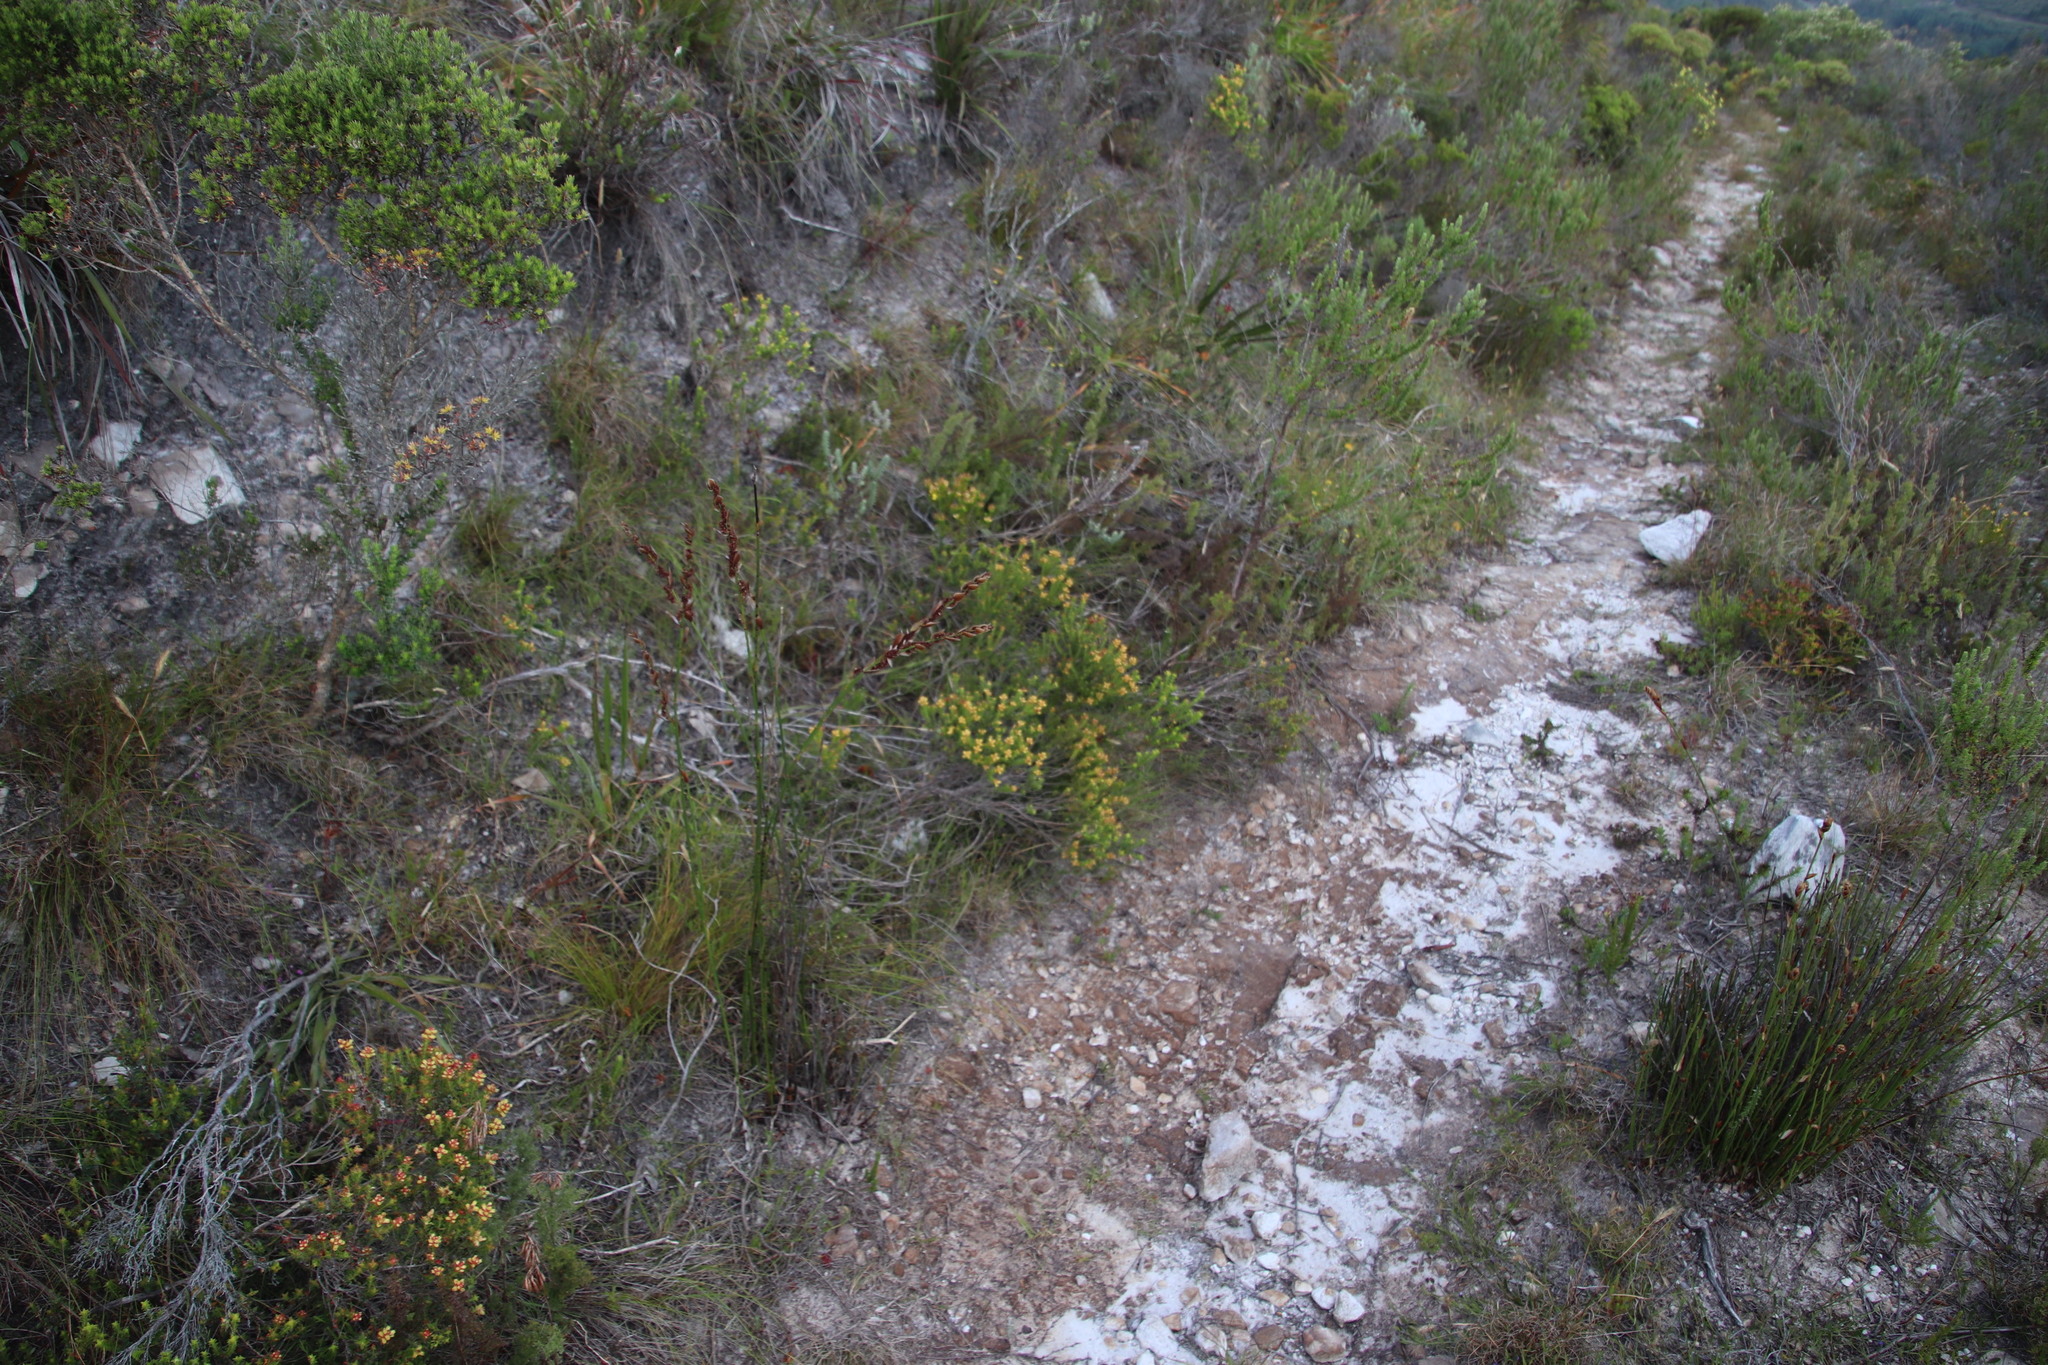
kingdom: Plantae
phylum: Tracheophyta
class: Magnoliopsida
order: Myrtales
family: Penaeaceae
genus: Penaea
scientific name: Penaea mucronata
